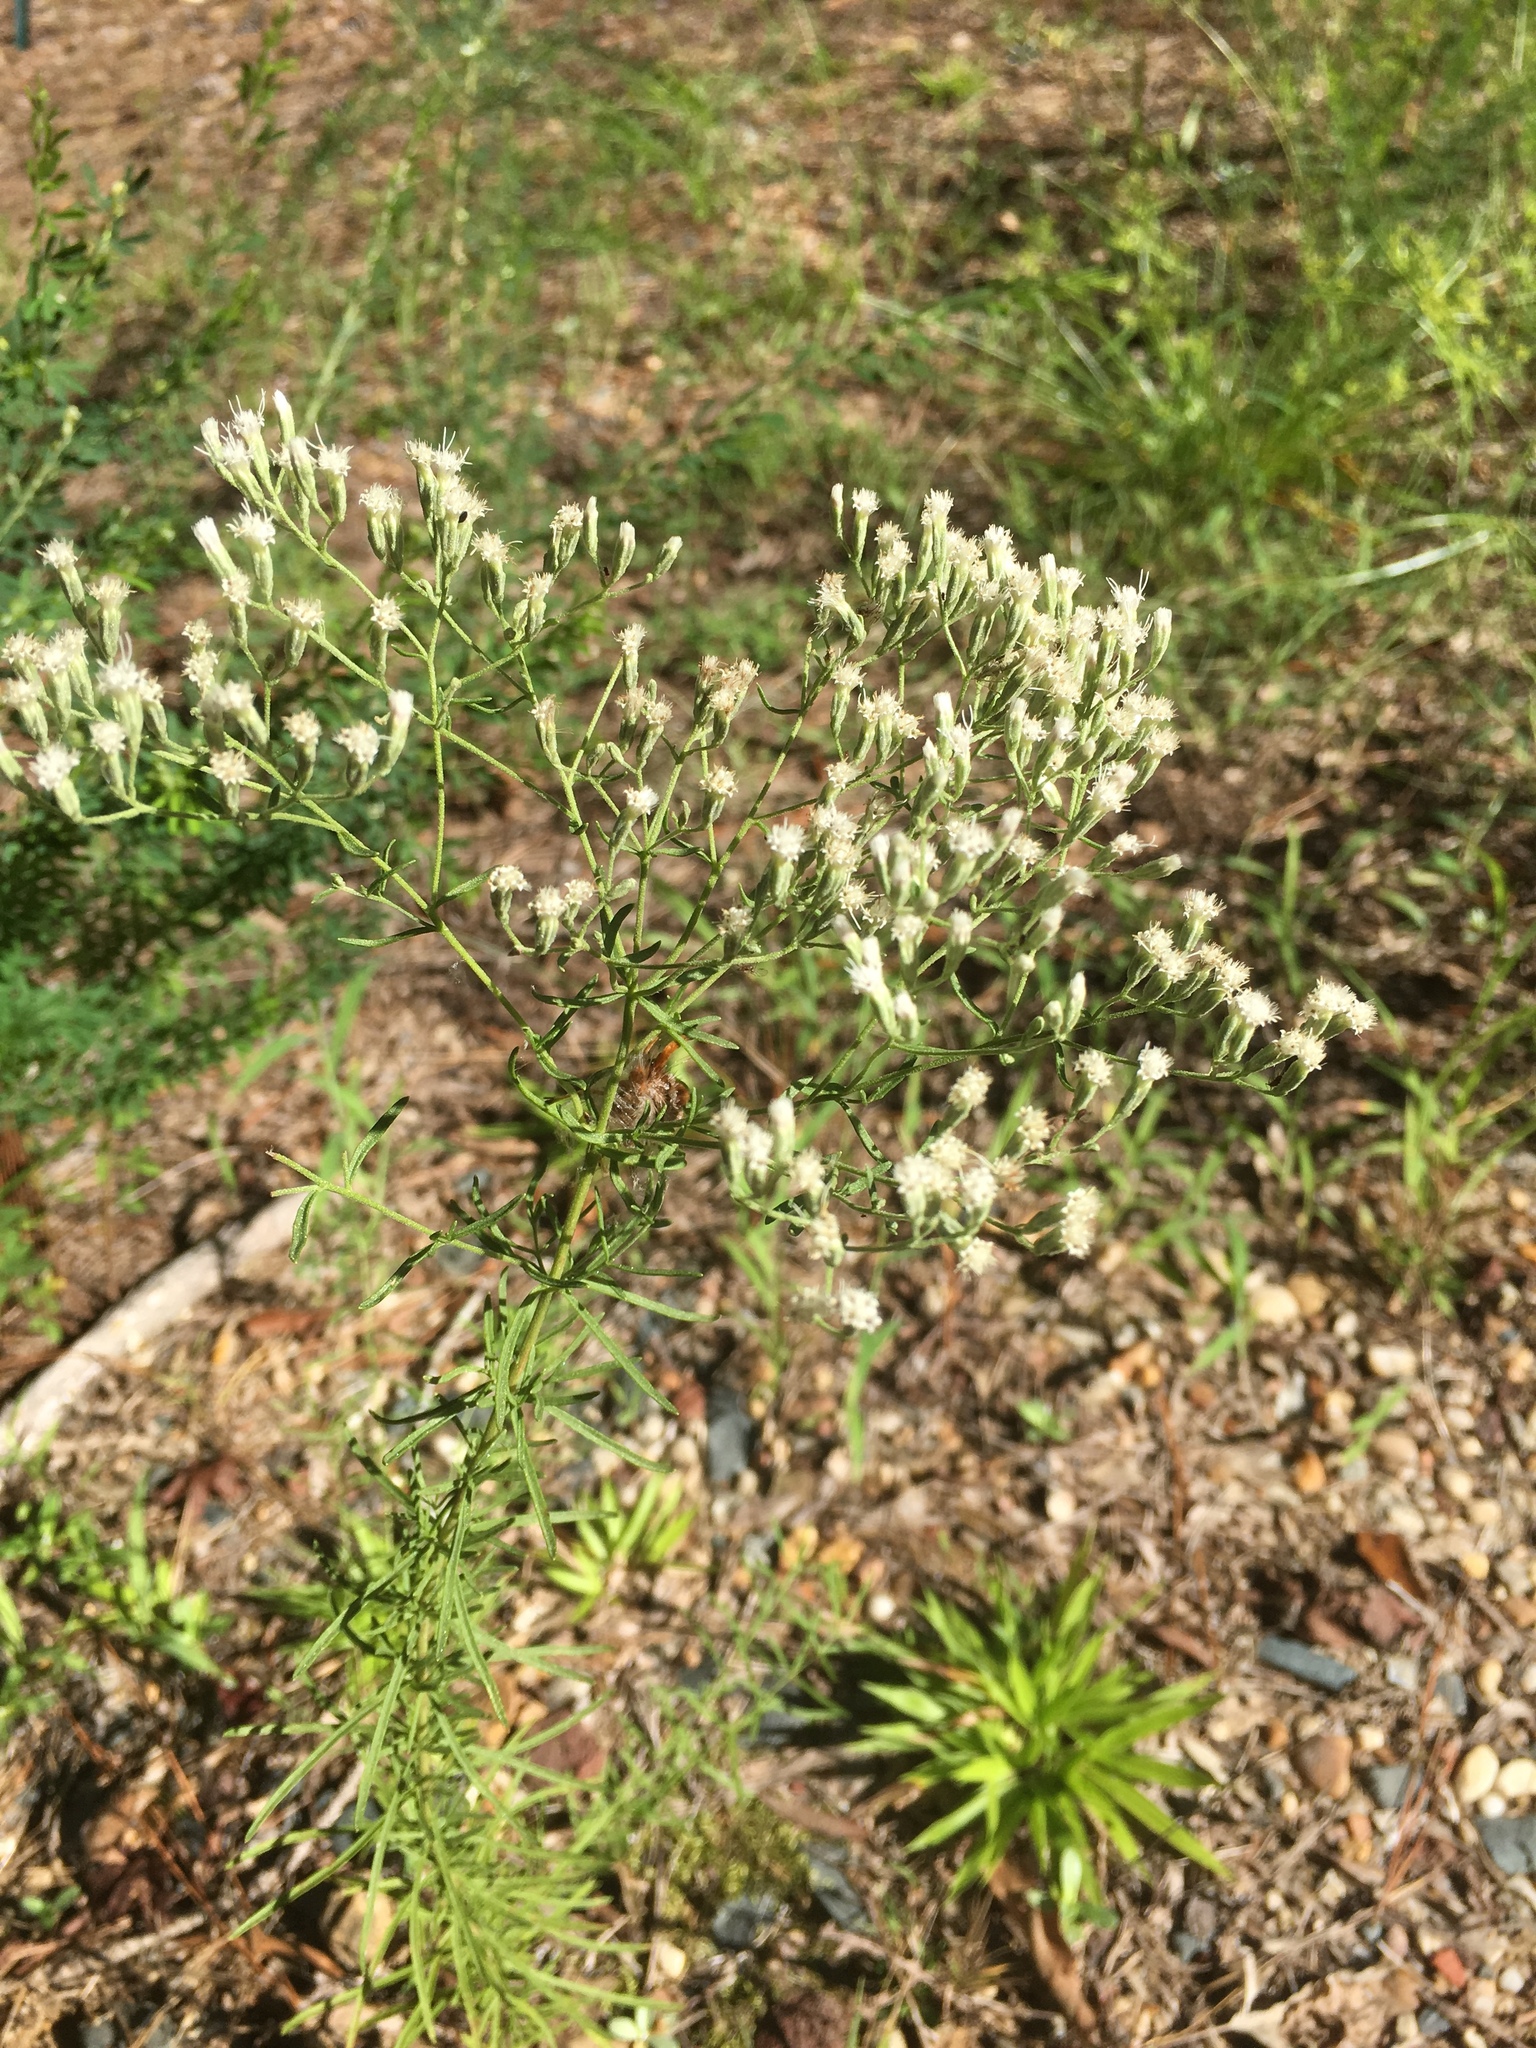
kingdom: Plantae
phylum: Tracheophyta
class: Magnoliopsida
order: Asterales
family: Asteraceae
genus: Eupatorium
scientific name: Eupatorium hyssopifolium
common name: Hyssop-leaf thoroughwort
